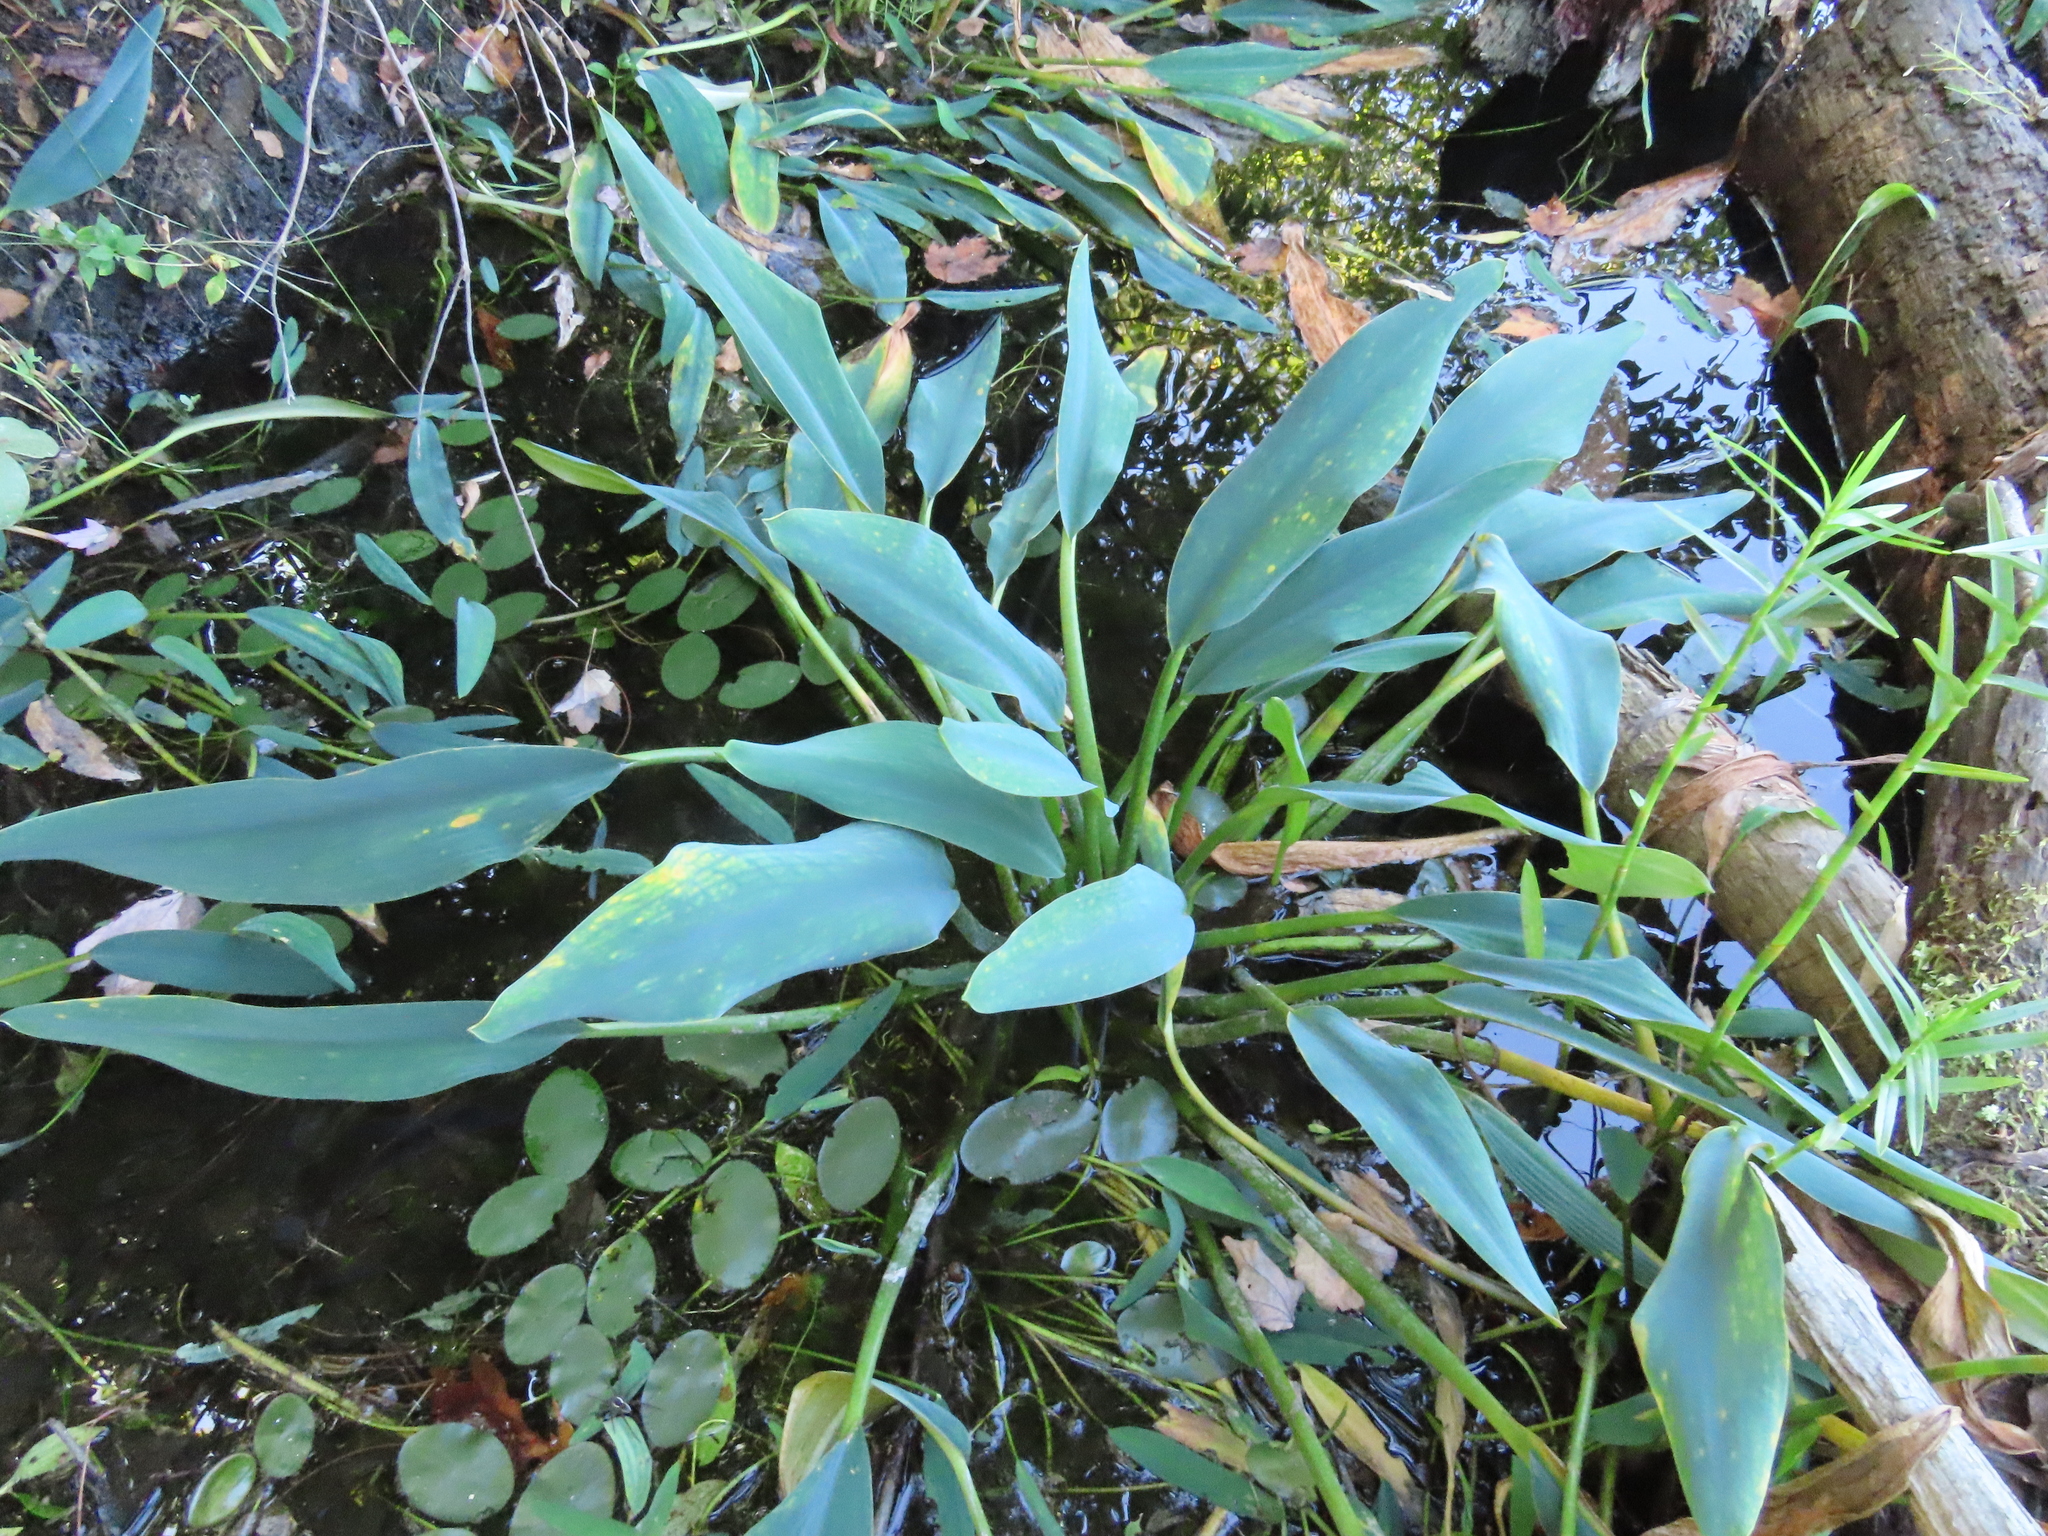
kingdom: Plantae
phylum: Tracheophyta
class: Liliopsida
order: Alismatales
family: Araceae
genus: Orontium
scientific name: Orontium aquaticum
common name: Golden-club
